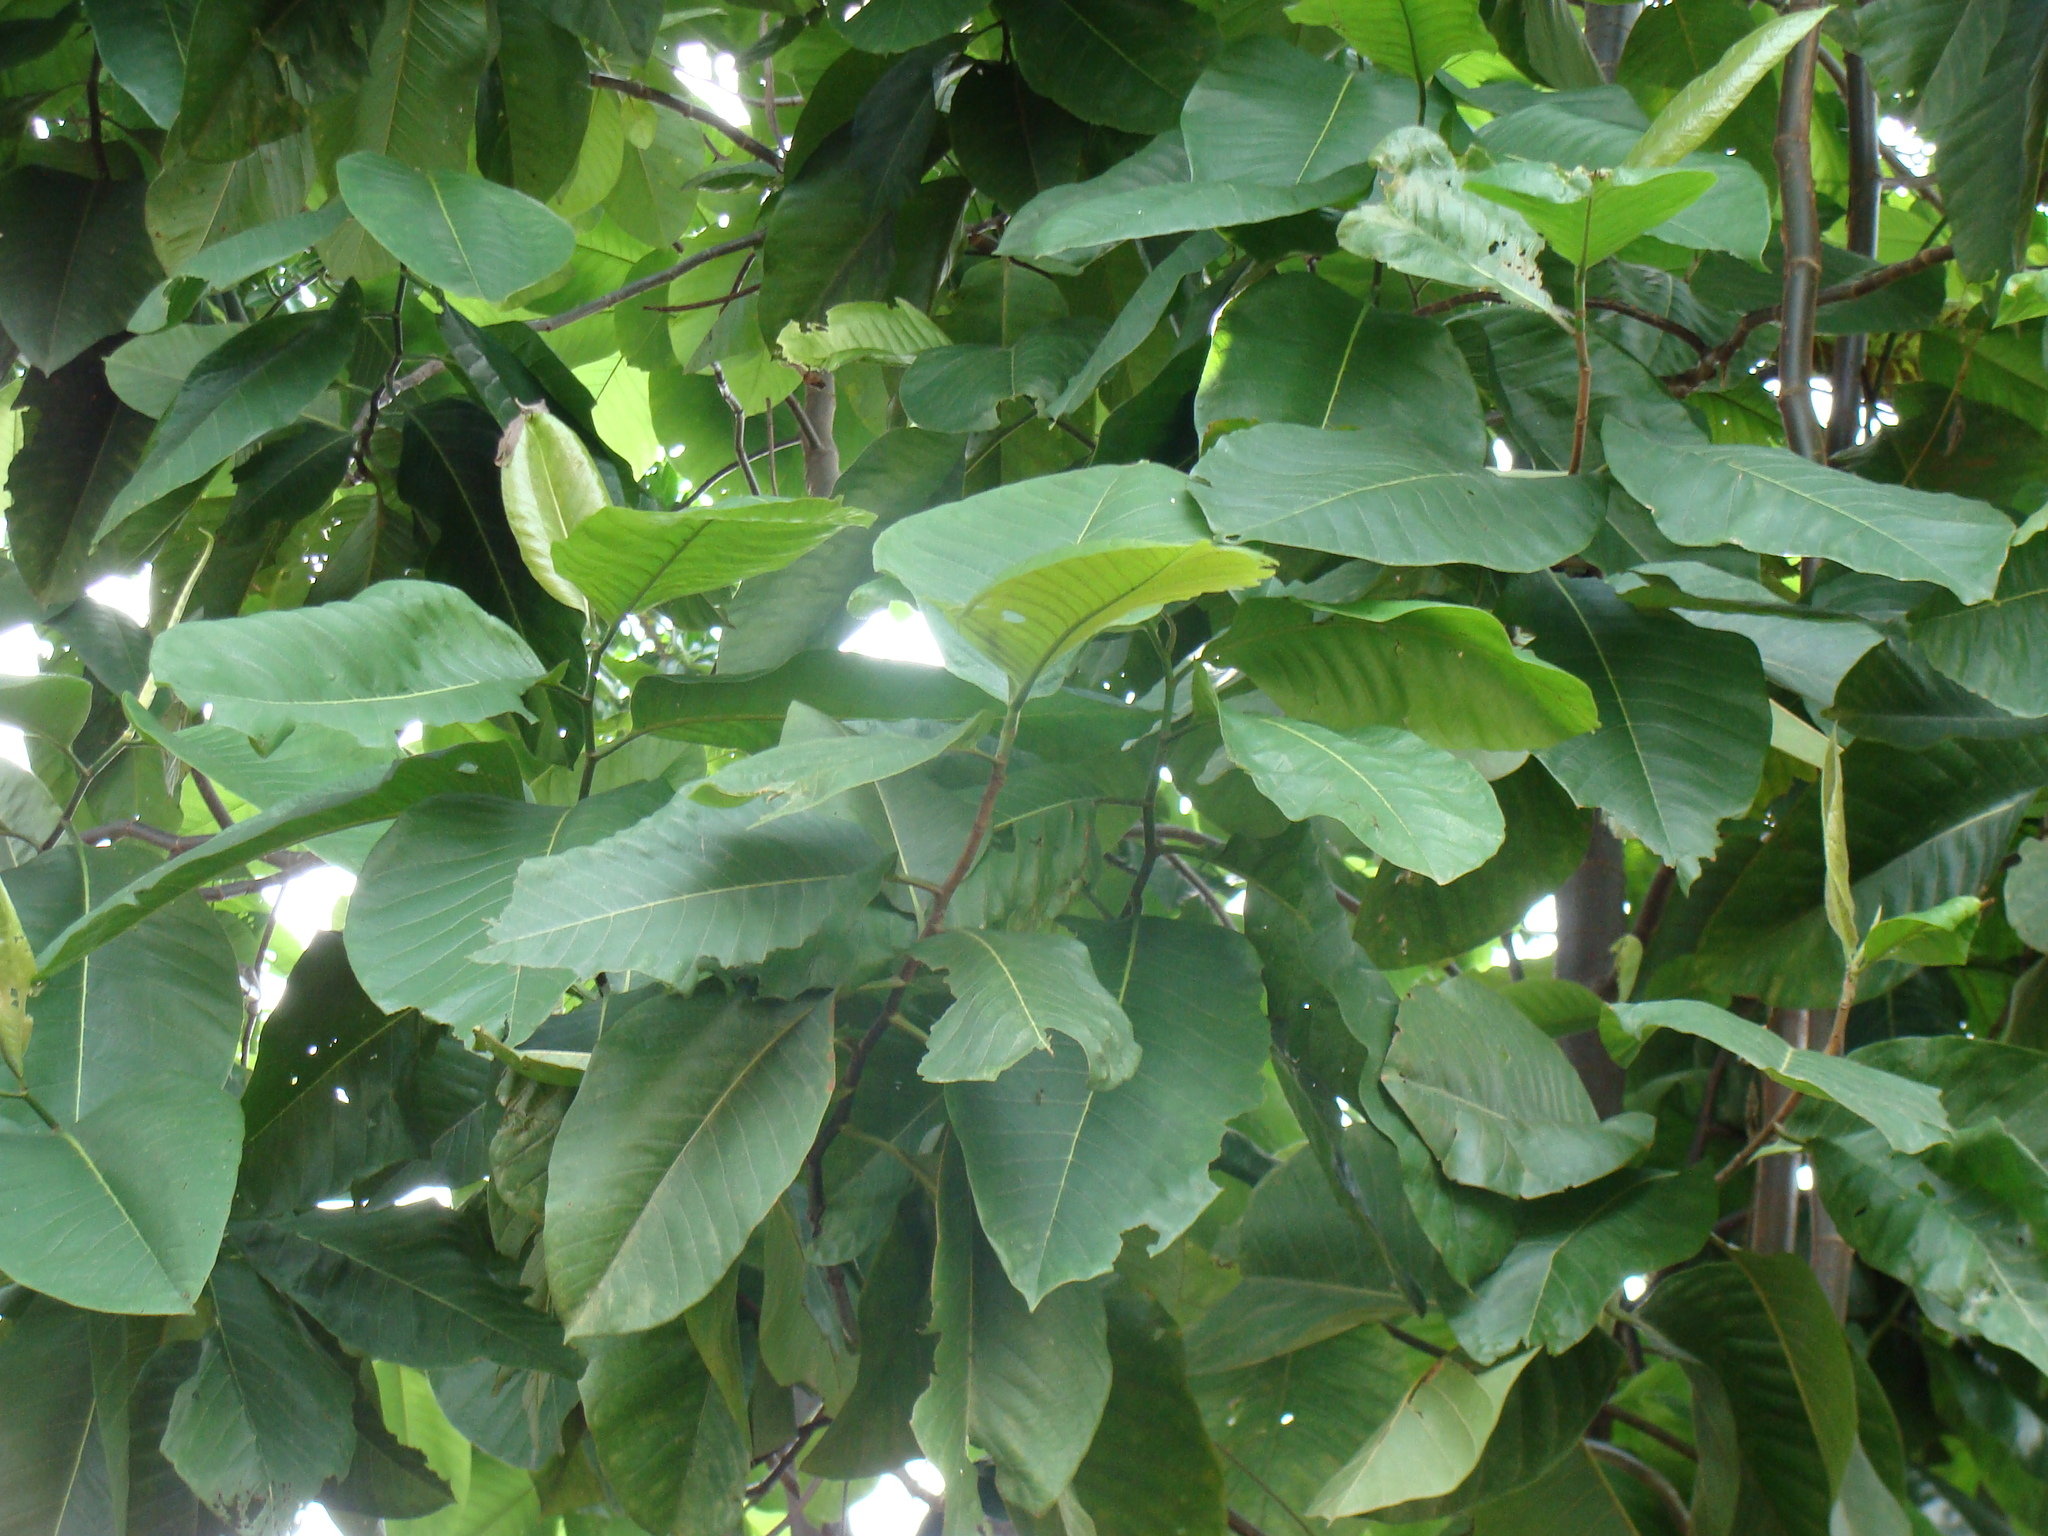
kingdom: Plantae
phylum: Tracheophyta
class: Magnoliopsida
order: Caryophyllales
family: Polygonaceae
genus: Triplaris
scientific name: Triplaris melaenodendron
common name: Long john
